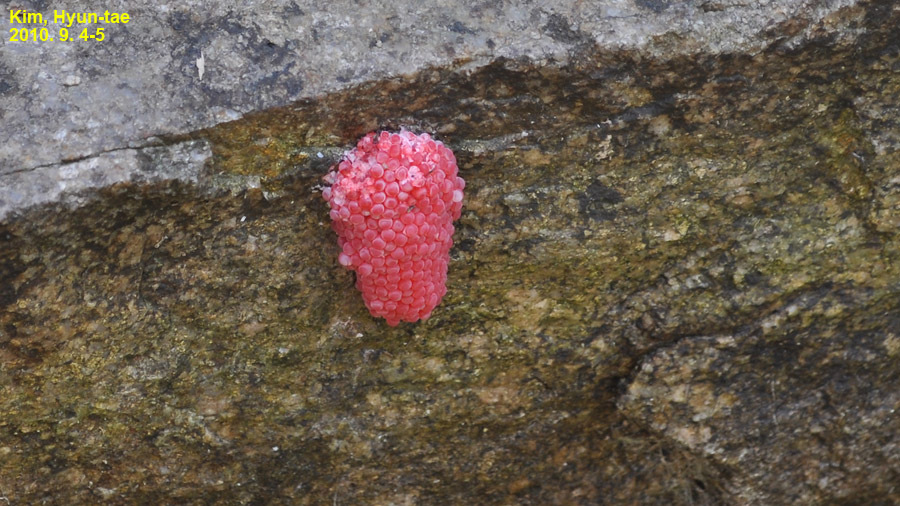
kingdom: Animalia
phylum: Mollusca
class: Gastropoda
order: Architaenioglossa
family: Ampullariidae
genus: Pomacea
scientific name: Pomacea canaliculata
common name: Channeled applesnail
